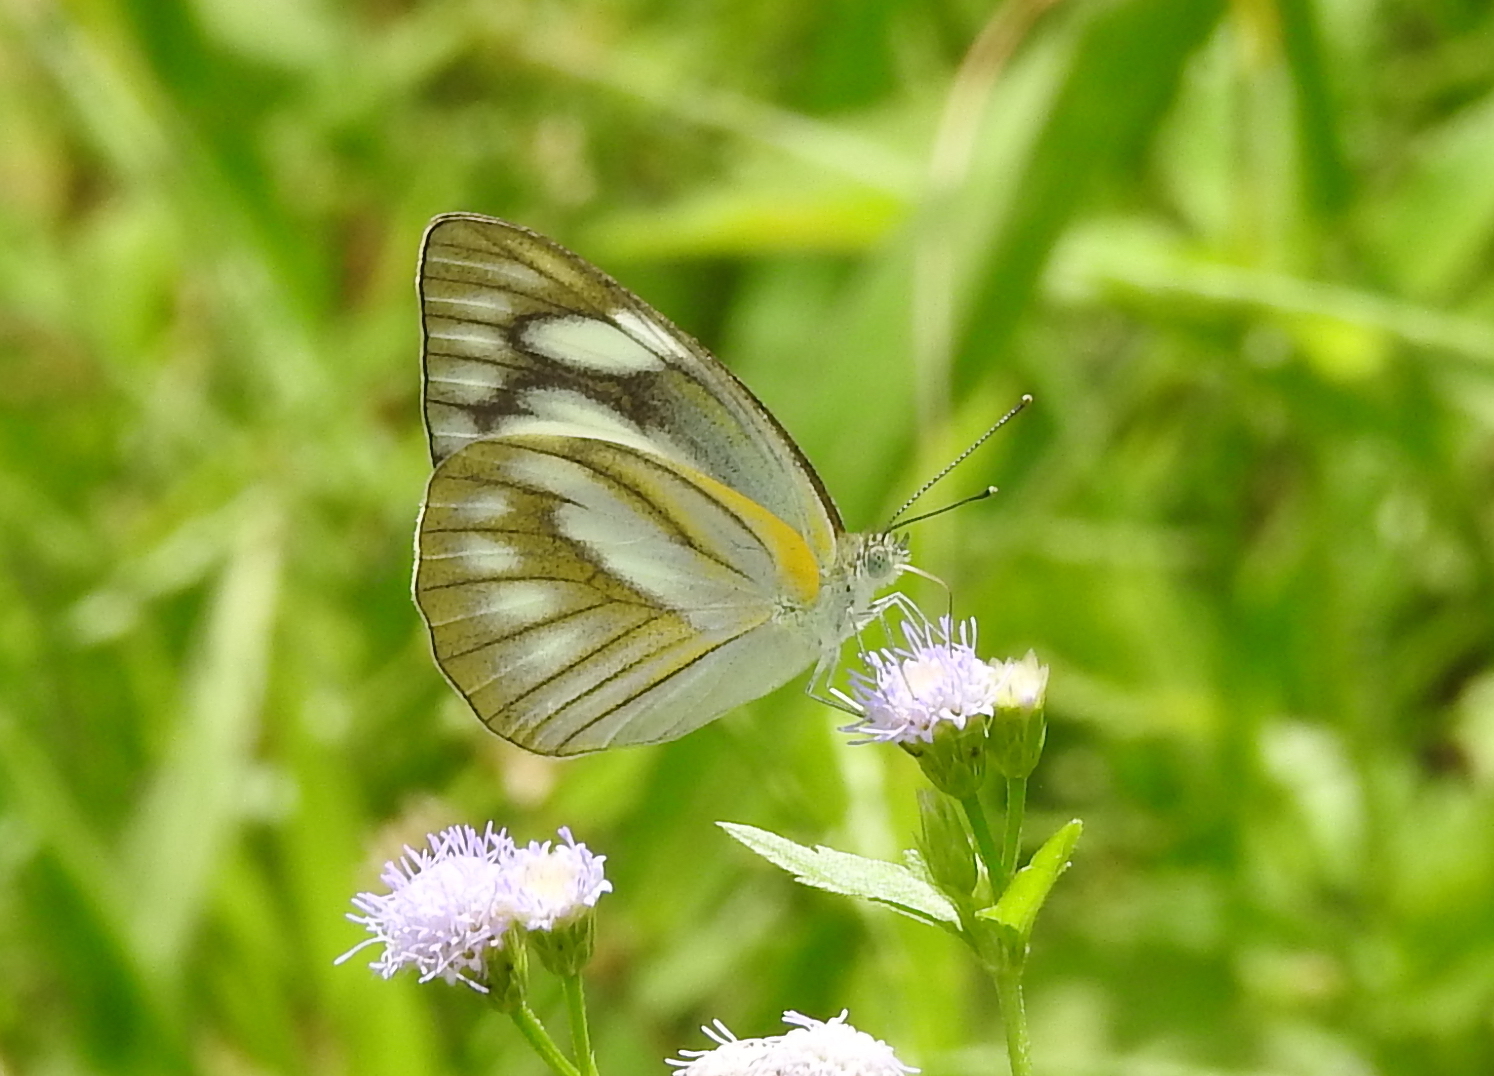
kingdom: Animalia
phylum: Arthropoda
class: Insecta
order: Lepidoptera
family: Pieridae
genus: Appias
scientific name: Appias libythea
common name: Striped albatross
